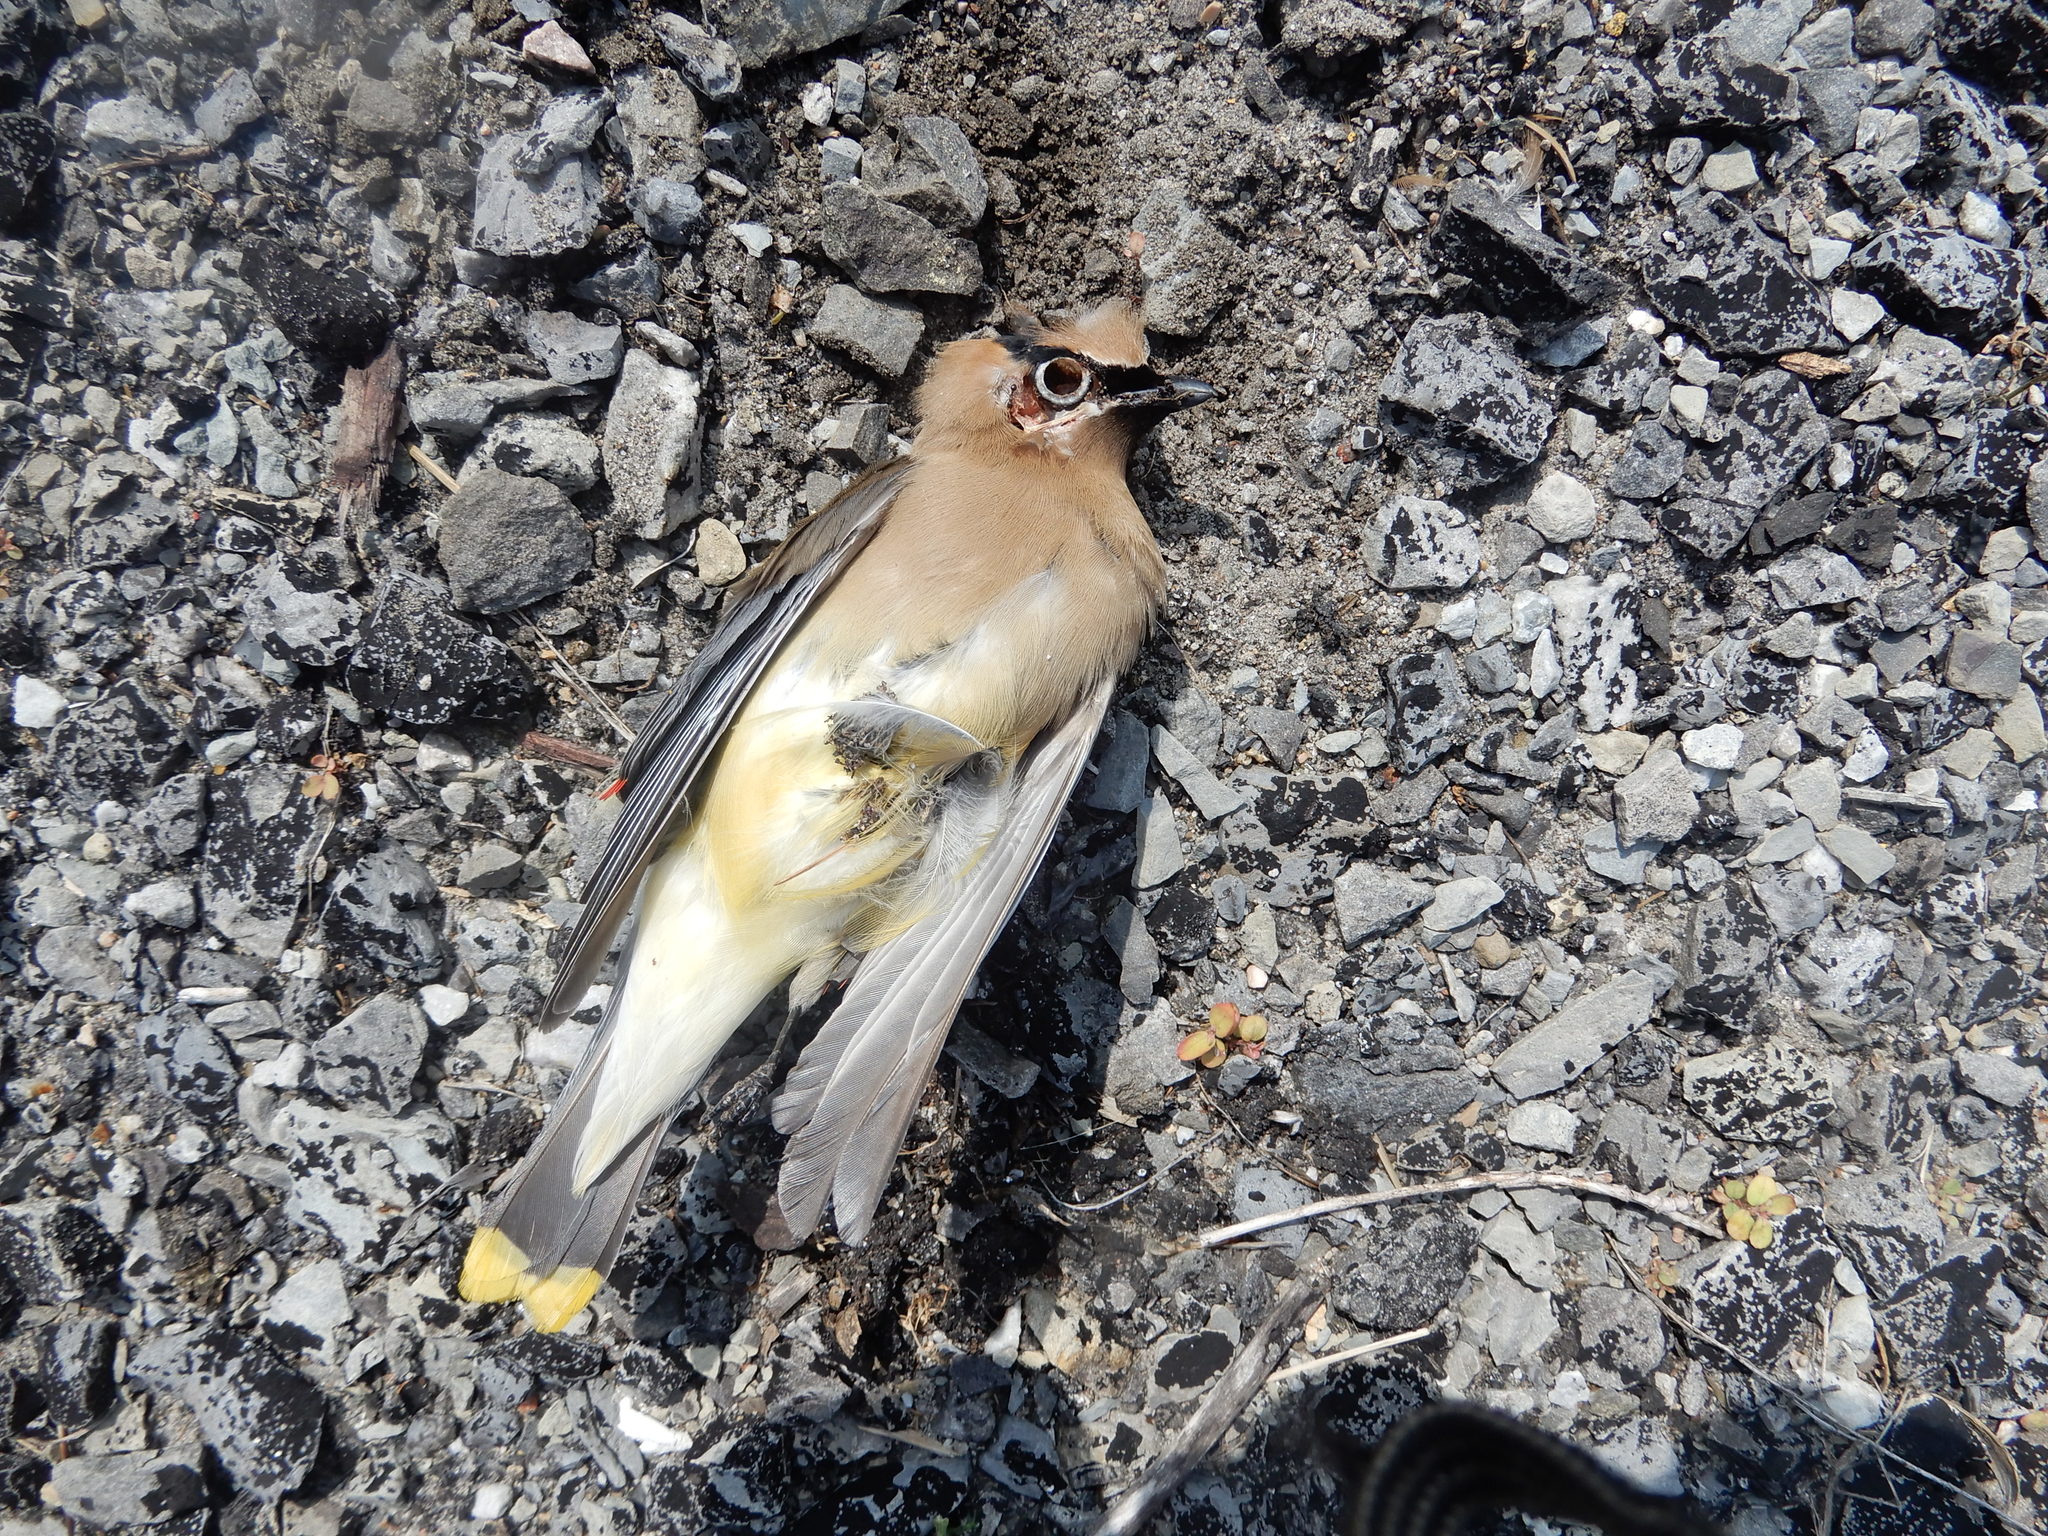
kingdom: Animalia
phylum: Chordata
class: Aves
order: Passeriformes
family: Bombycillidae
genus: Bombycilla
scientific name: Bombycilla cedrorum
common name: Cedar waxwing
